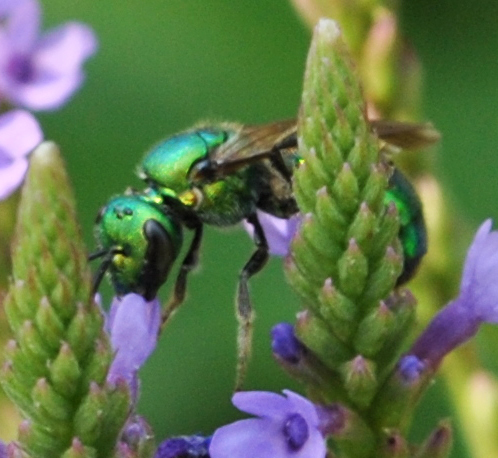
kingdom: Animalia
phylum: Arthropoda
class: Insecta
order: Hymenoptera
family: Halictidae
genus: Augochlora
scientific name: Augochlora pura
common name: Pure green sweat bee
